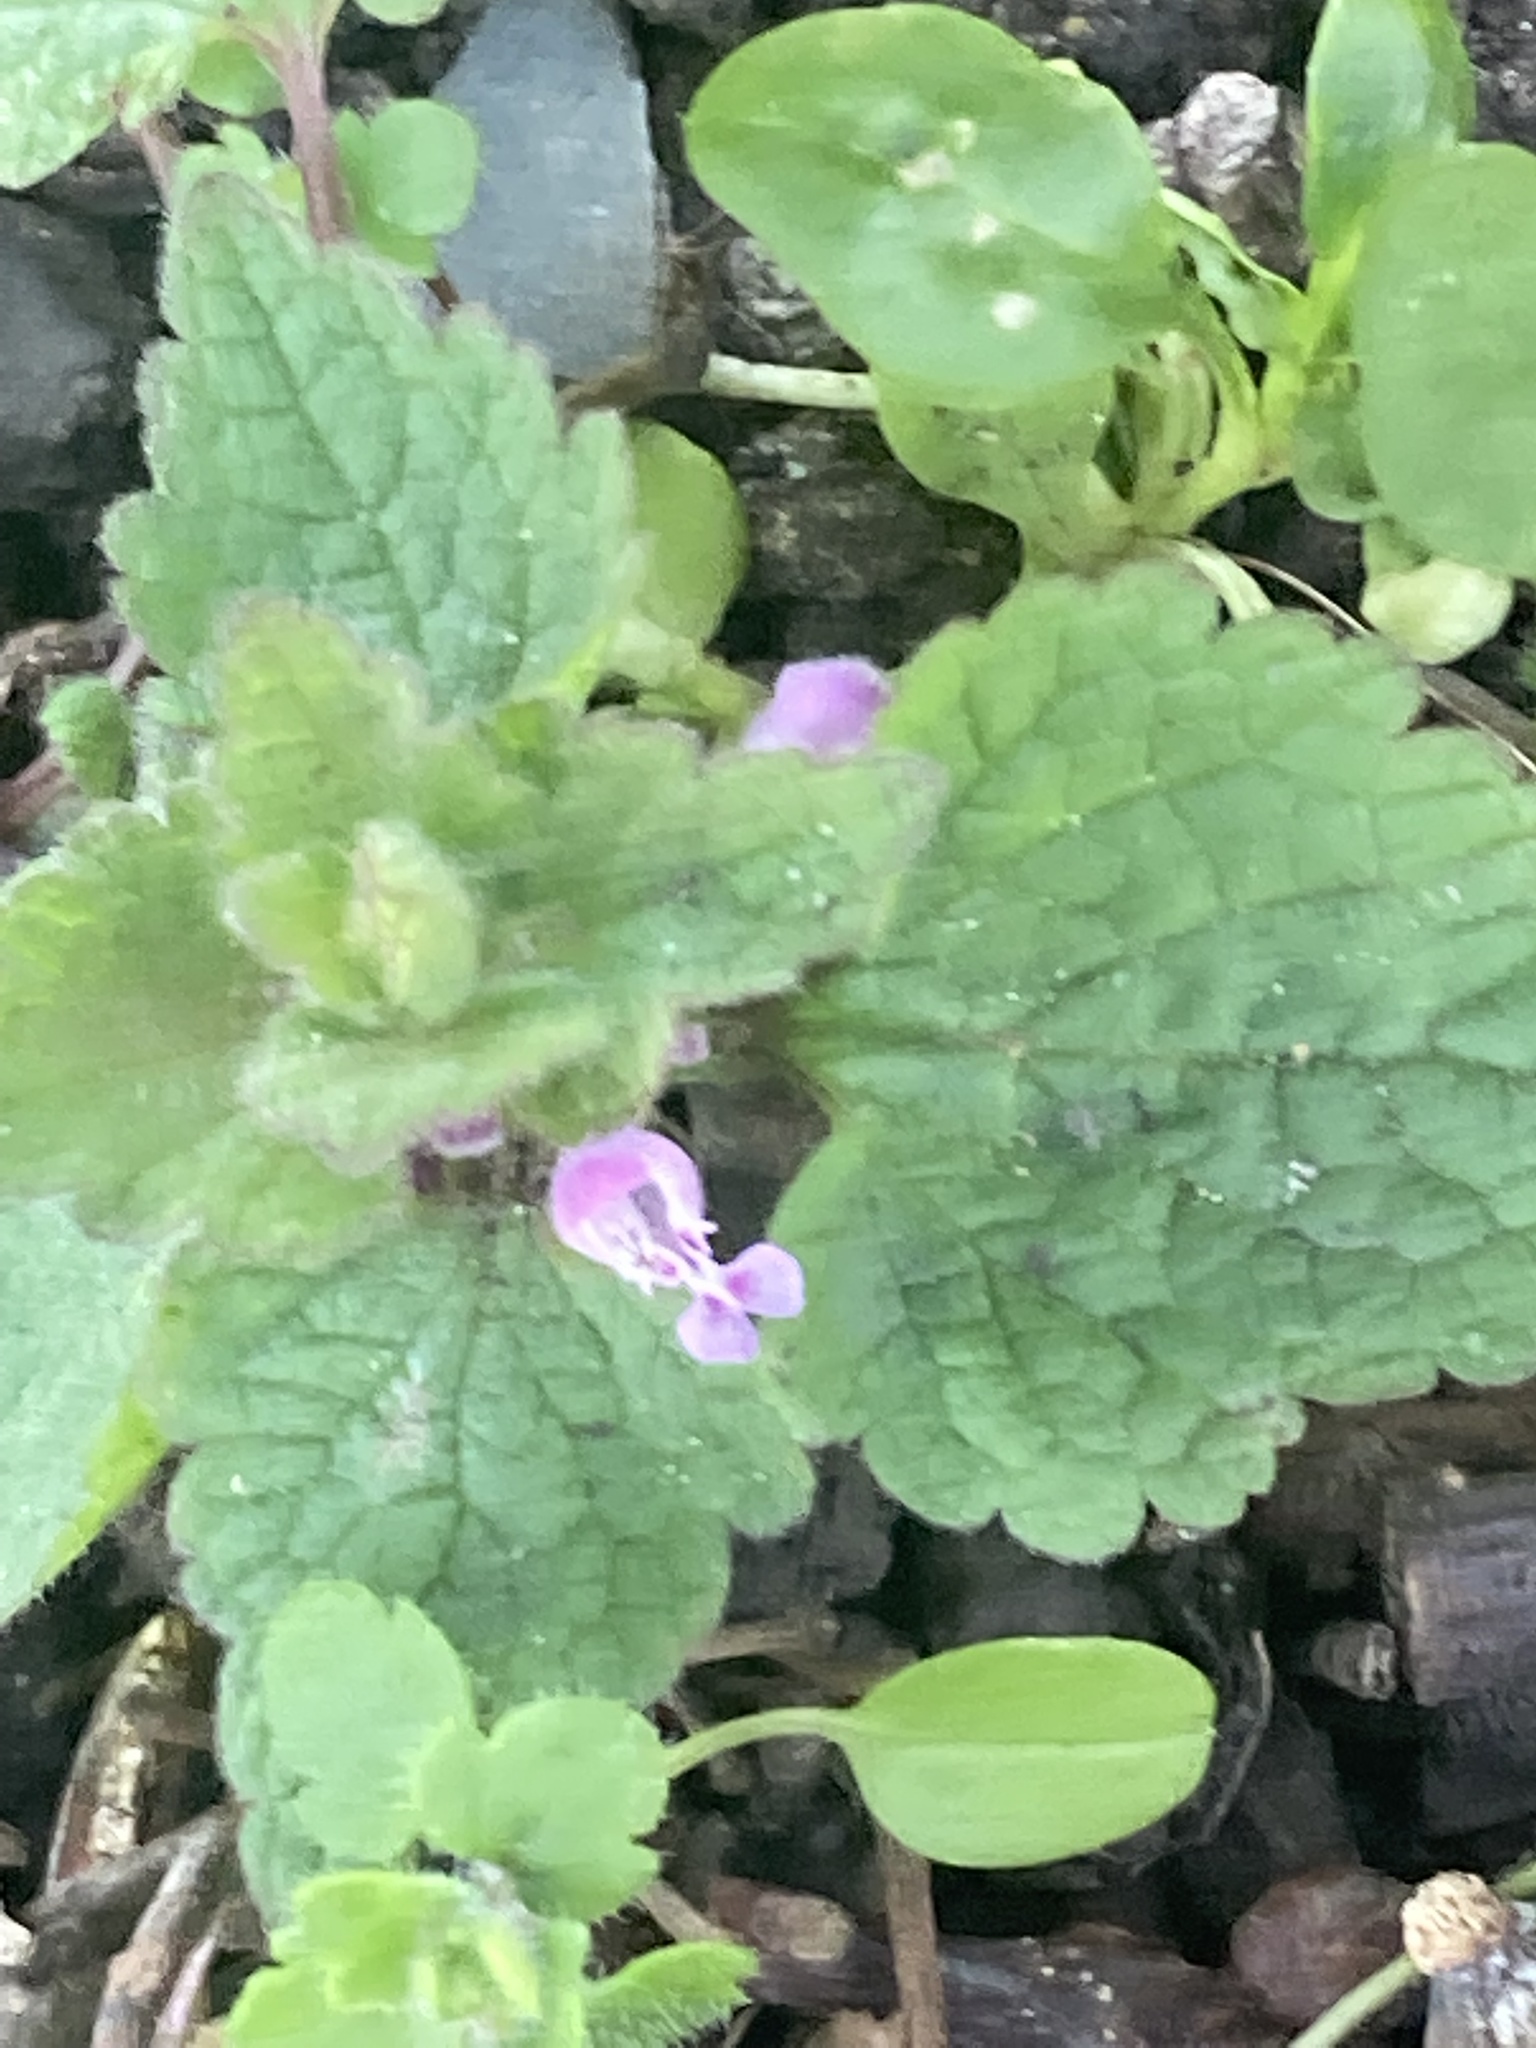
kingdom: Plantae
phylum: Tracheophyta
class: Magnoliopsida
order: Lamiales
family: Lamiaceae
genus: Lamium
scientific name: Lamium purpureum
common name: Red dead-nettle
